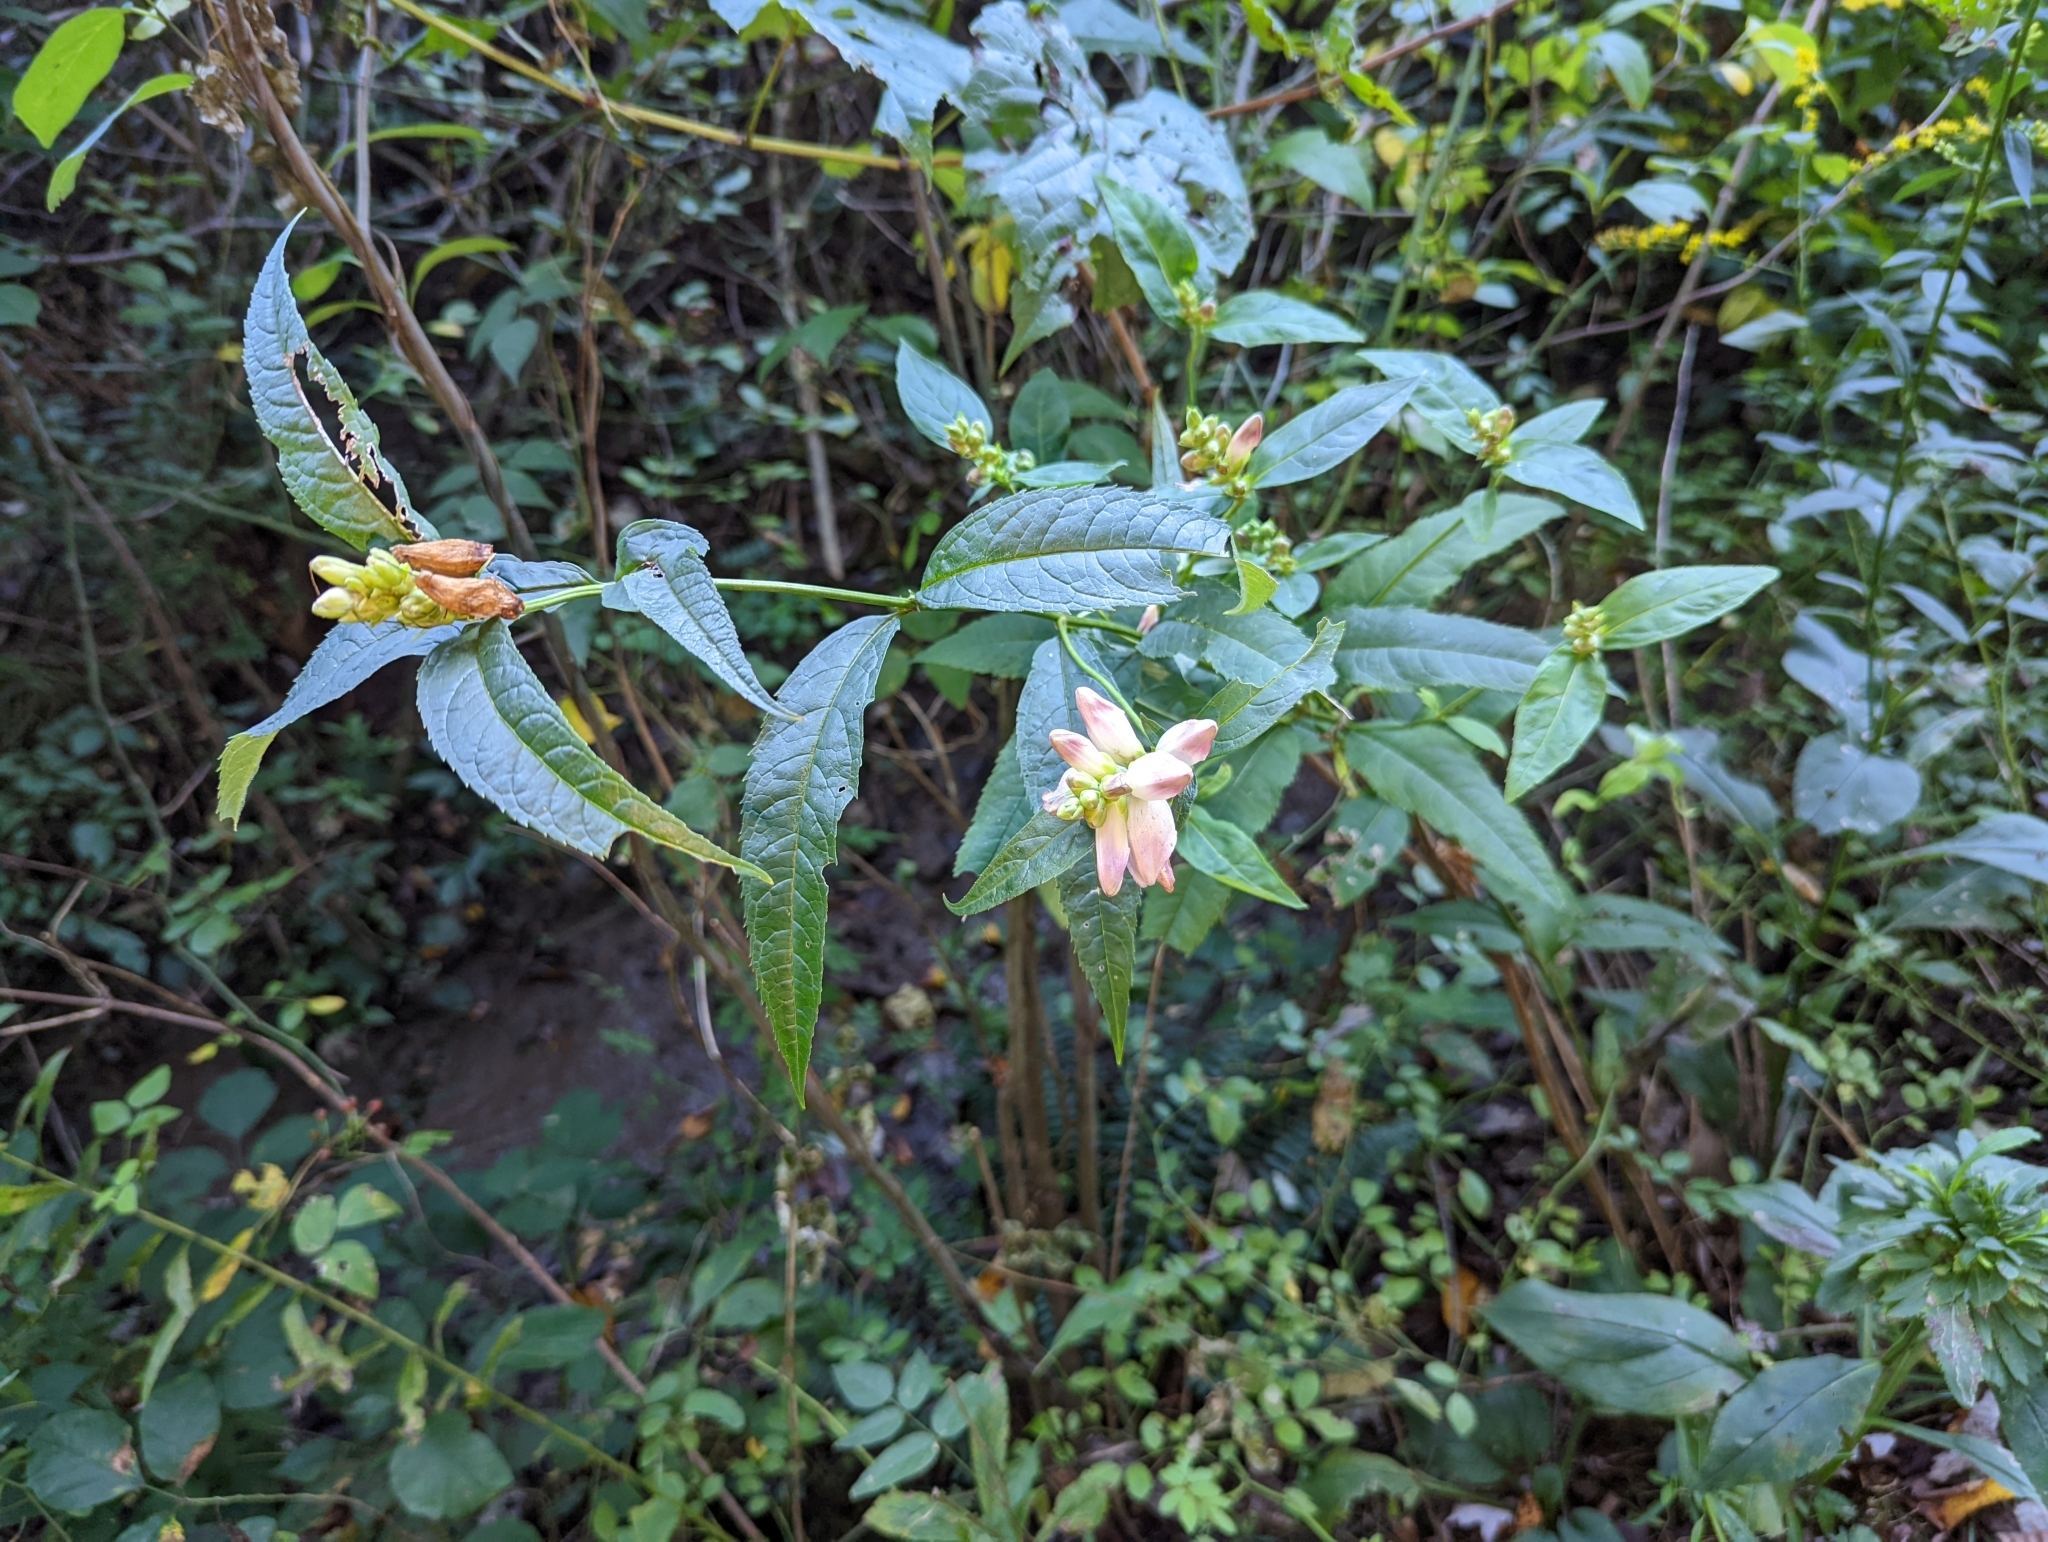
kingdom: Plantae
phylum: Tracheophyta
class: Magnoliopsida
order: Lamiales
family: Plantaginaceae
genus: Chelone
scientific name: Chelone glabra
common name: Snakehead
